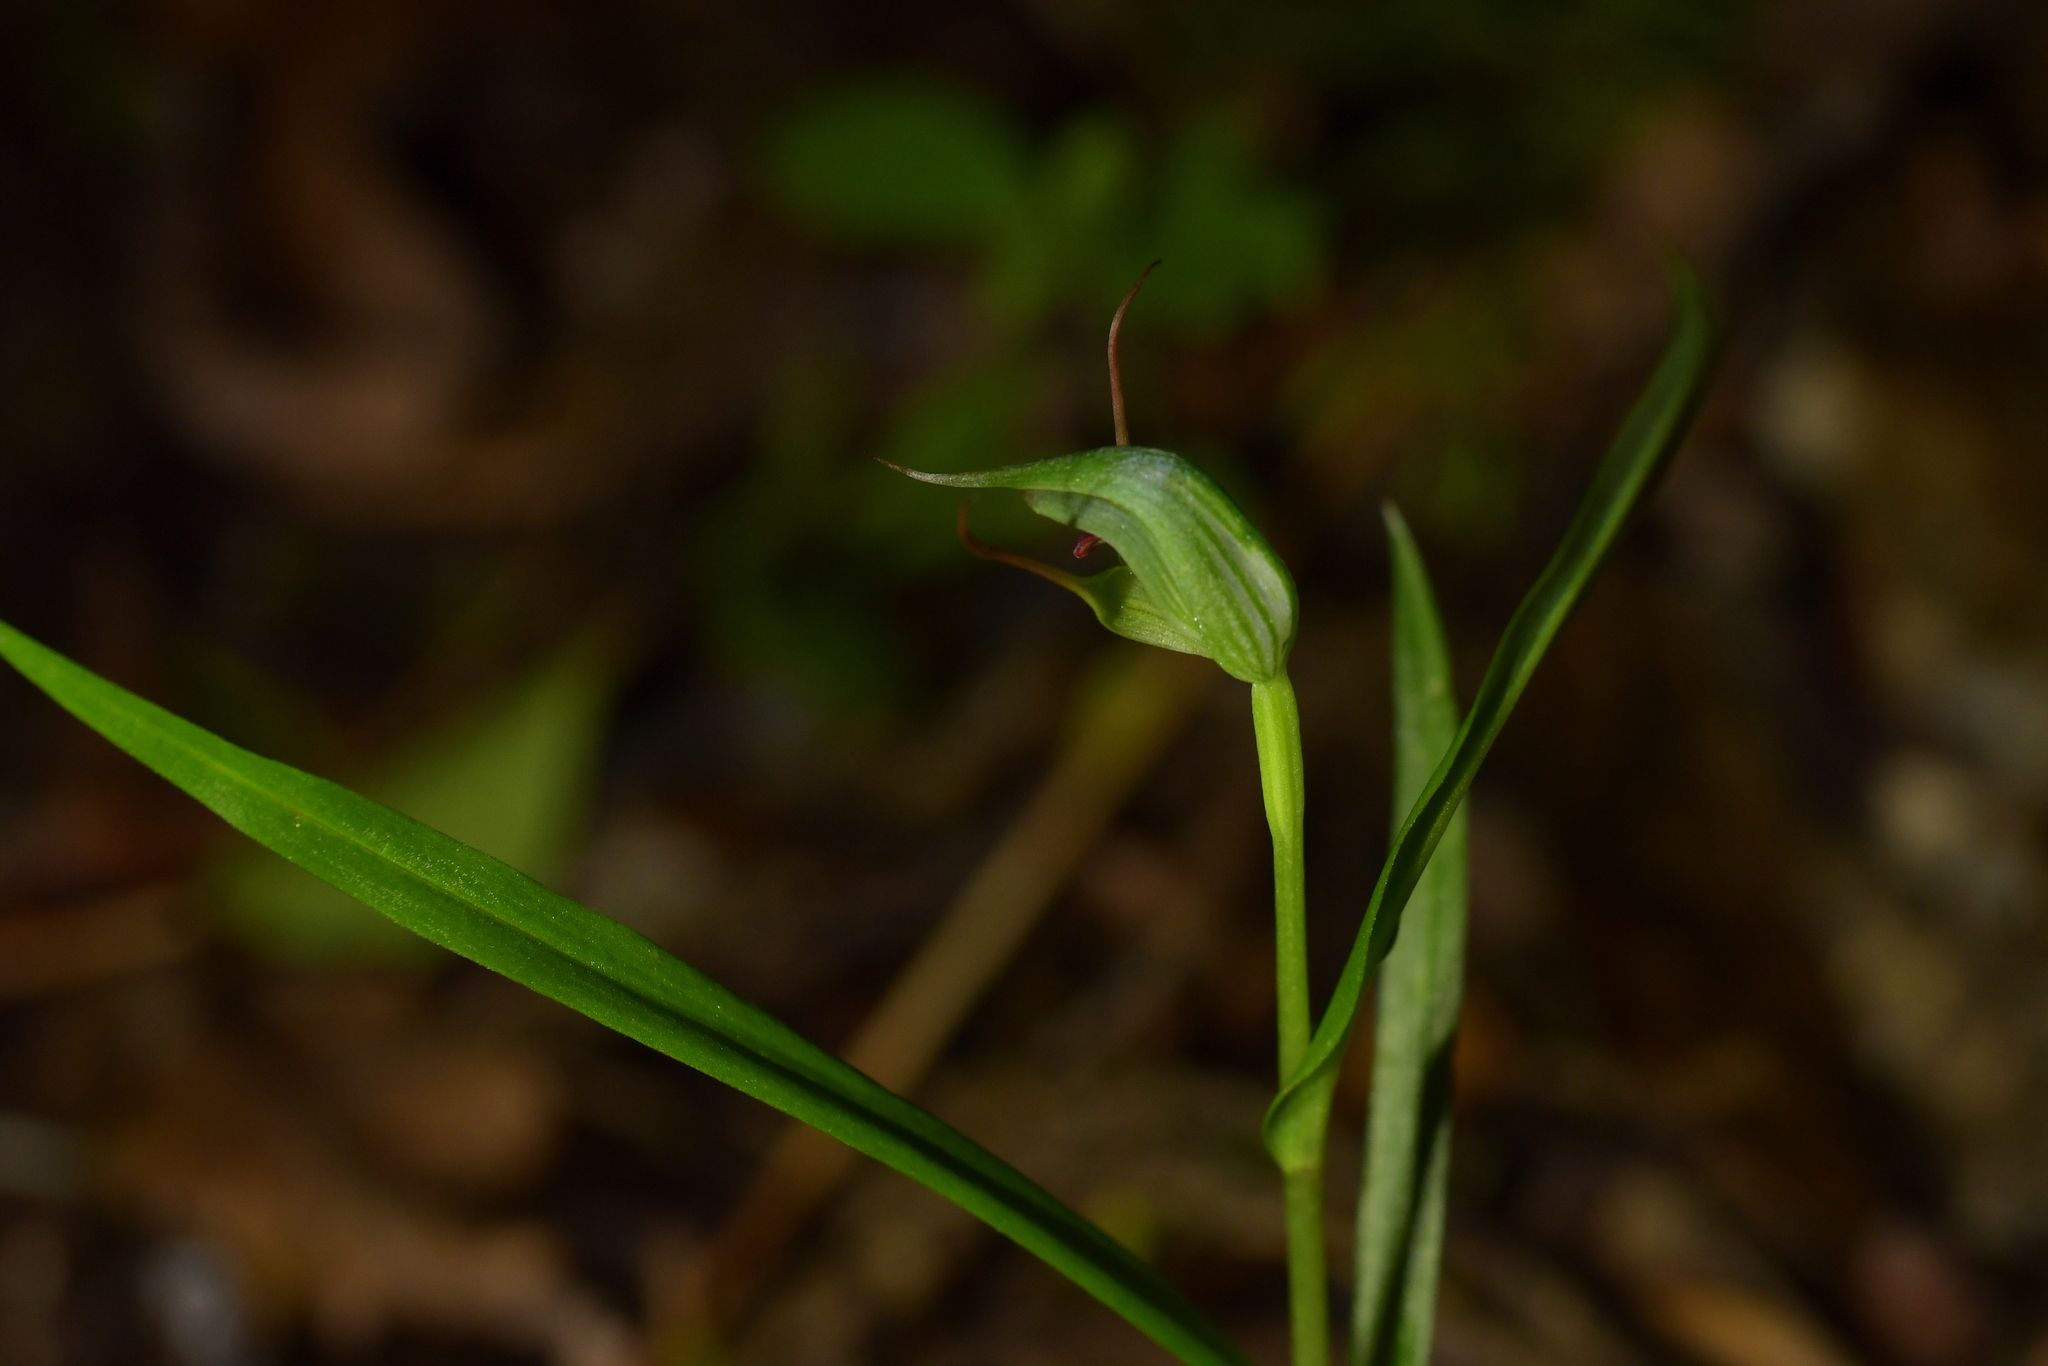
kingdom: Plantae
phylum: Tracheophyta
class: Liliopsida
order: Asparagales
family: Orchidaceae
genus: Pterostylis
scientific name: Pterostylis agathicola
